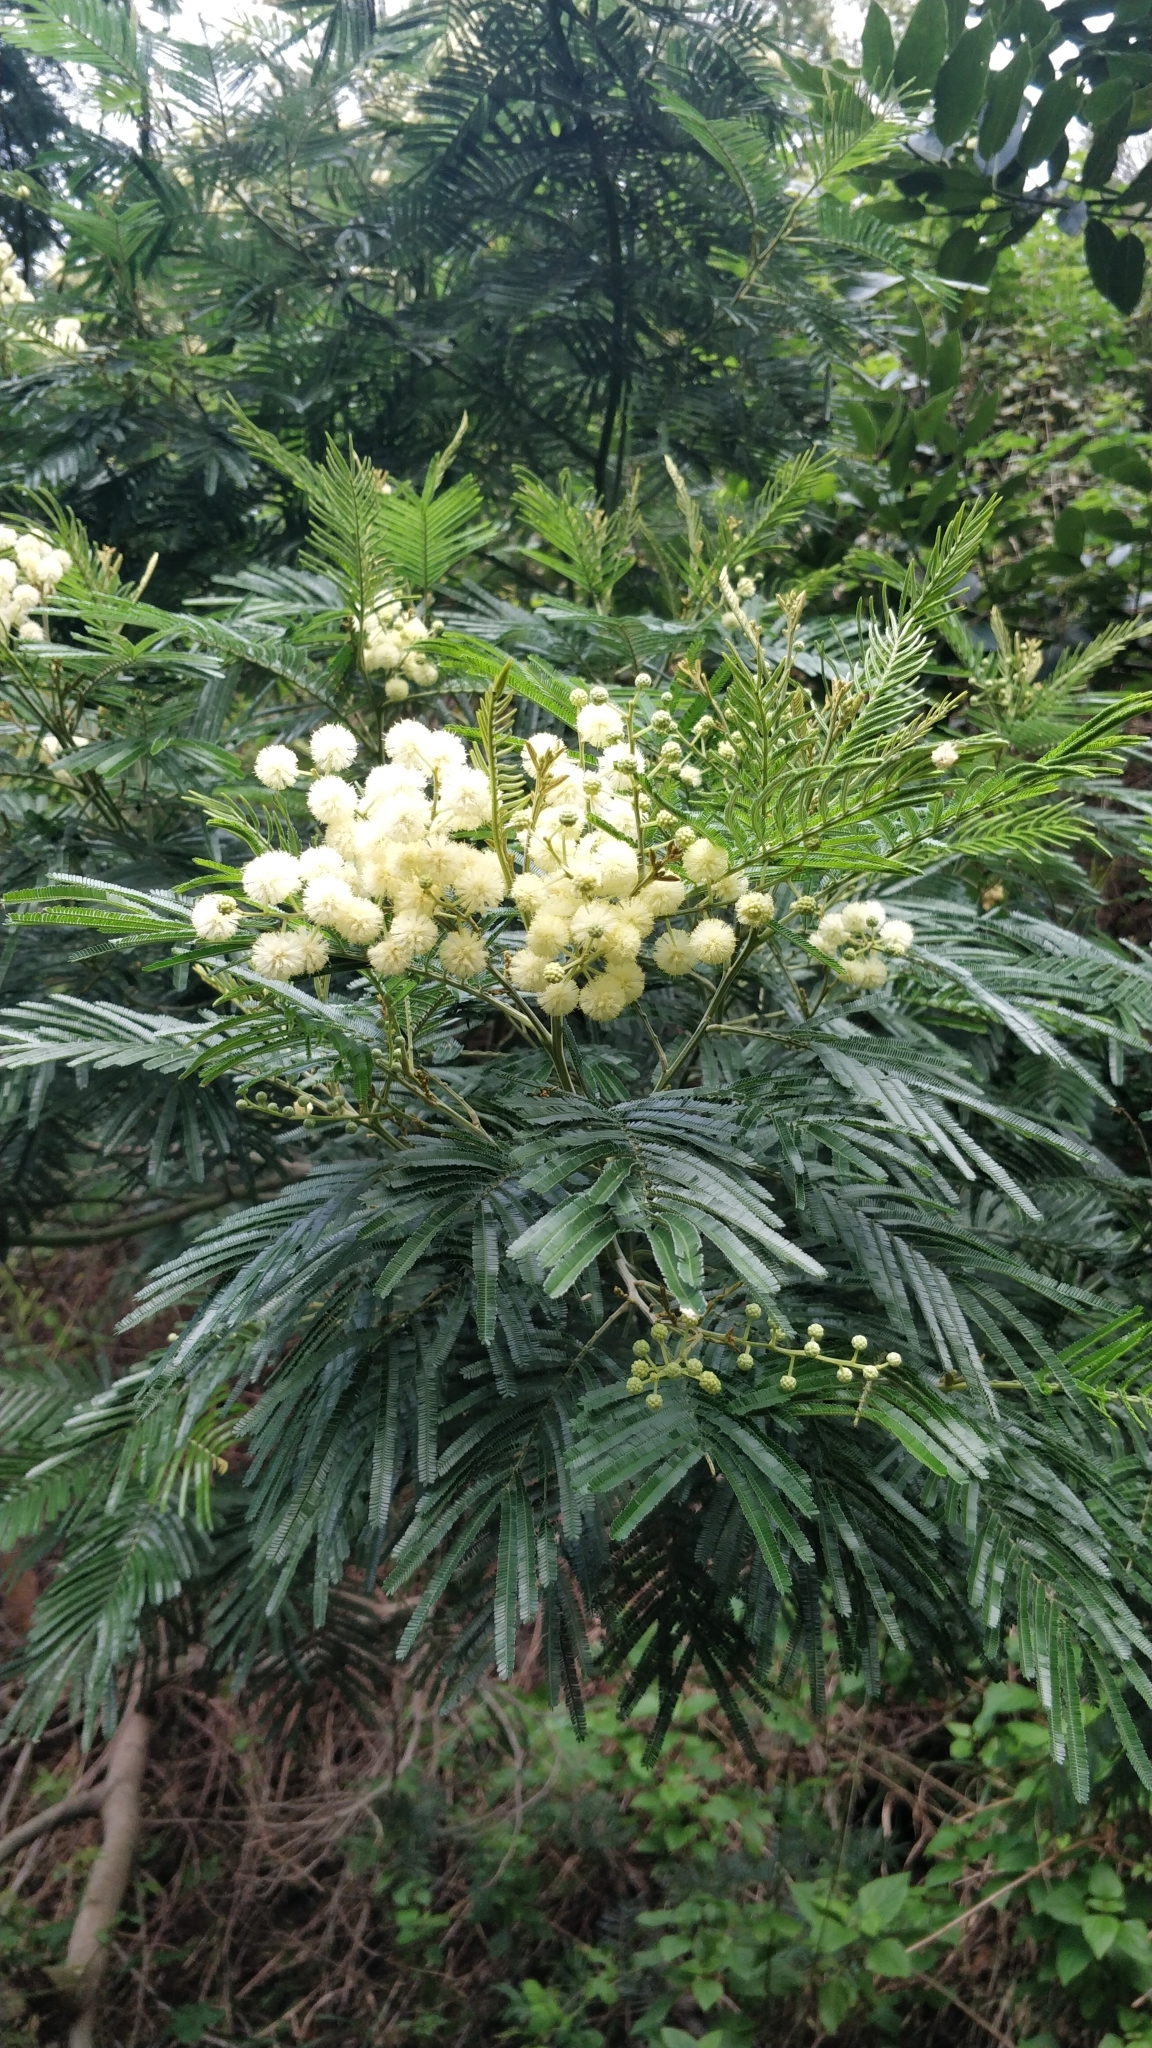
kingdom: Plantae
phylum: Tracheophyta
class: Magnoliopsida
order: Fabales
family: Fabaceae
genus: Acacia
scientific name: Acacia mearnsii
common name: Black wattle
